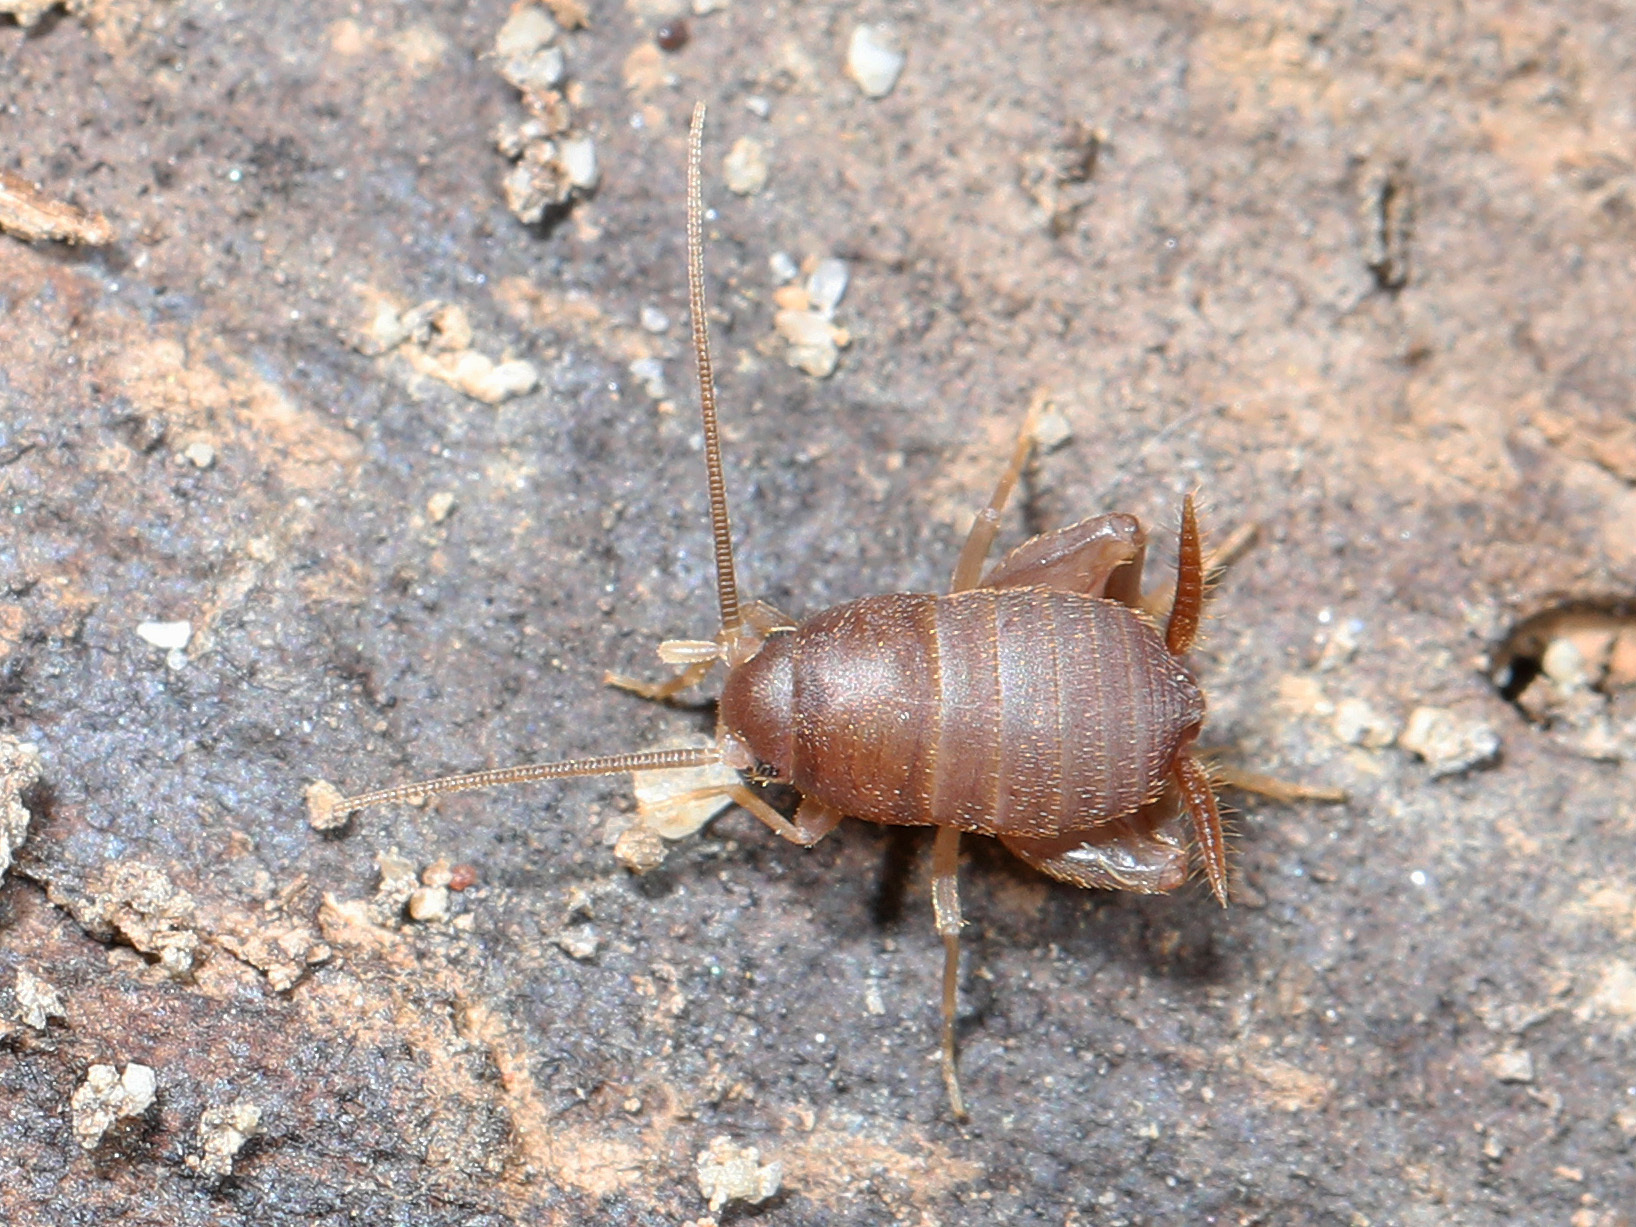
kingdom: Animalia
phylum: Arthropoda
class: Insecta
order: Orthoptera
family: Myrmecophilidae
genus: Myrmecophilus
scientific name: Myrmecophilus pergandei
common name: Eastern ant cricket
